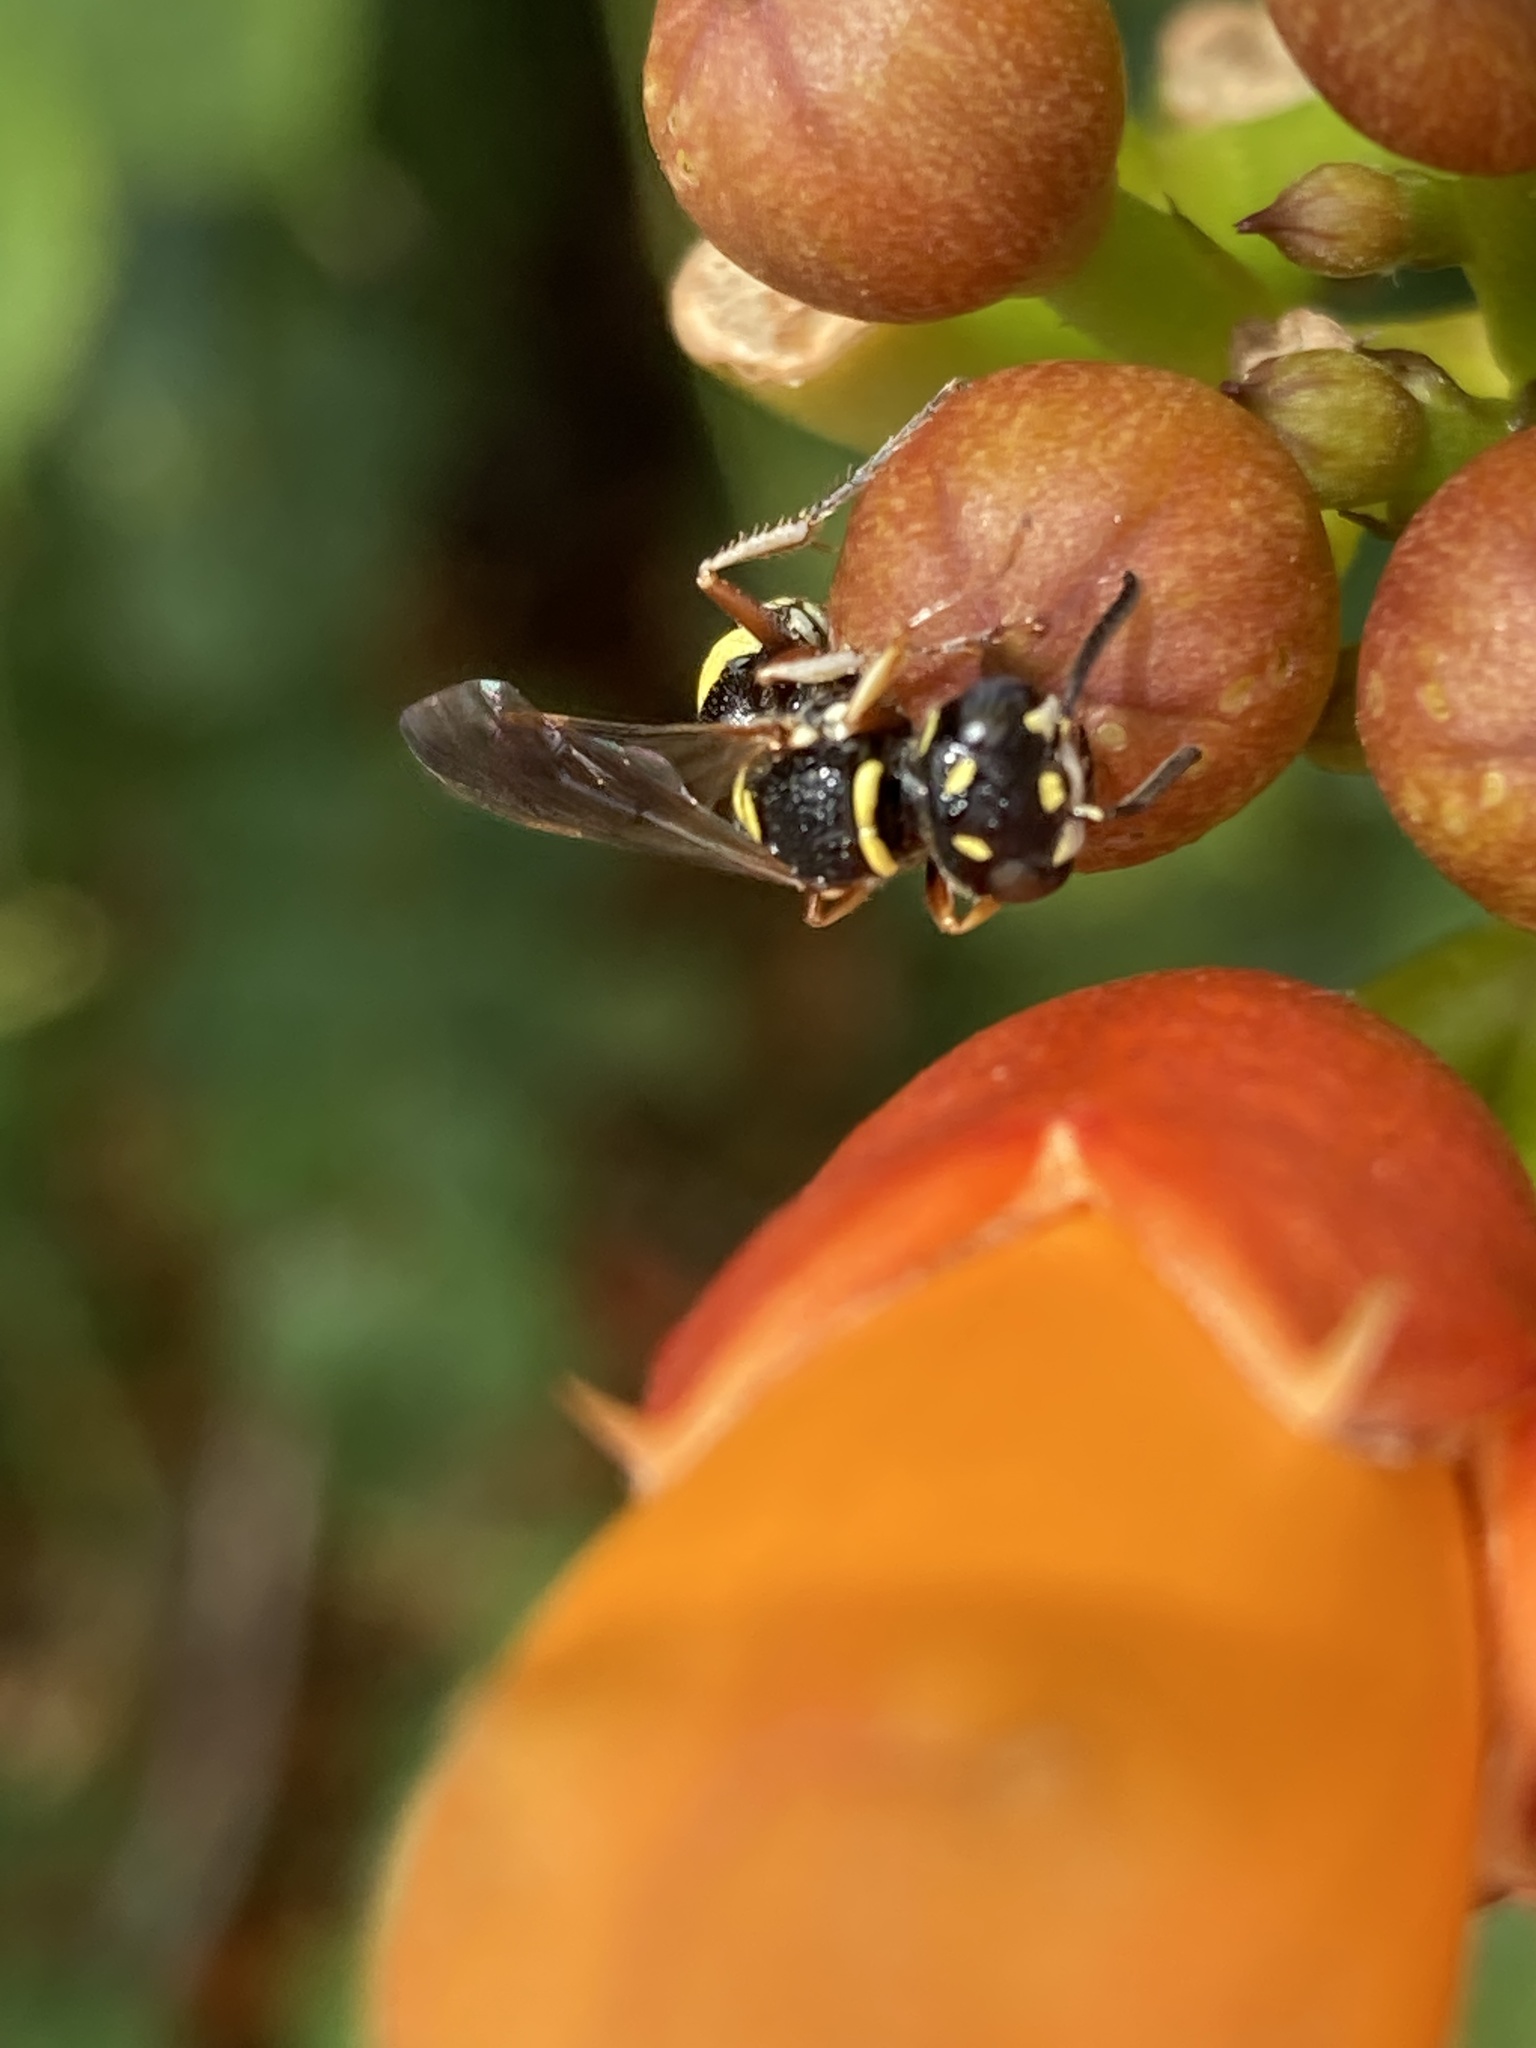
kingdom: Animalia
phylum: Arthropoda
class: Insecta
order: Hymenoptera
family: Crabronidae
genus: Philanthus
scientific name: Philanthus gibbosus
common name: Humped beewolf
